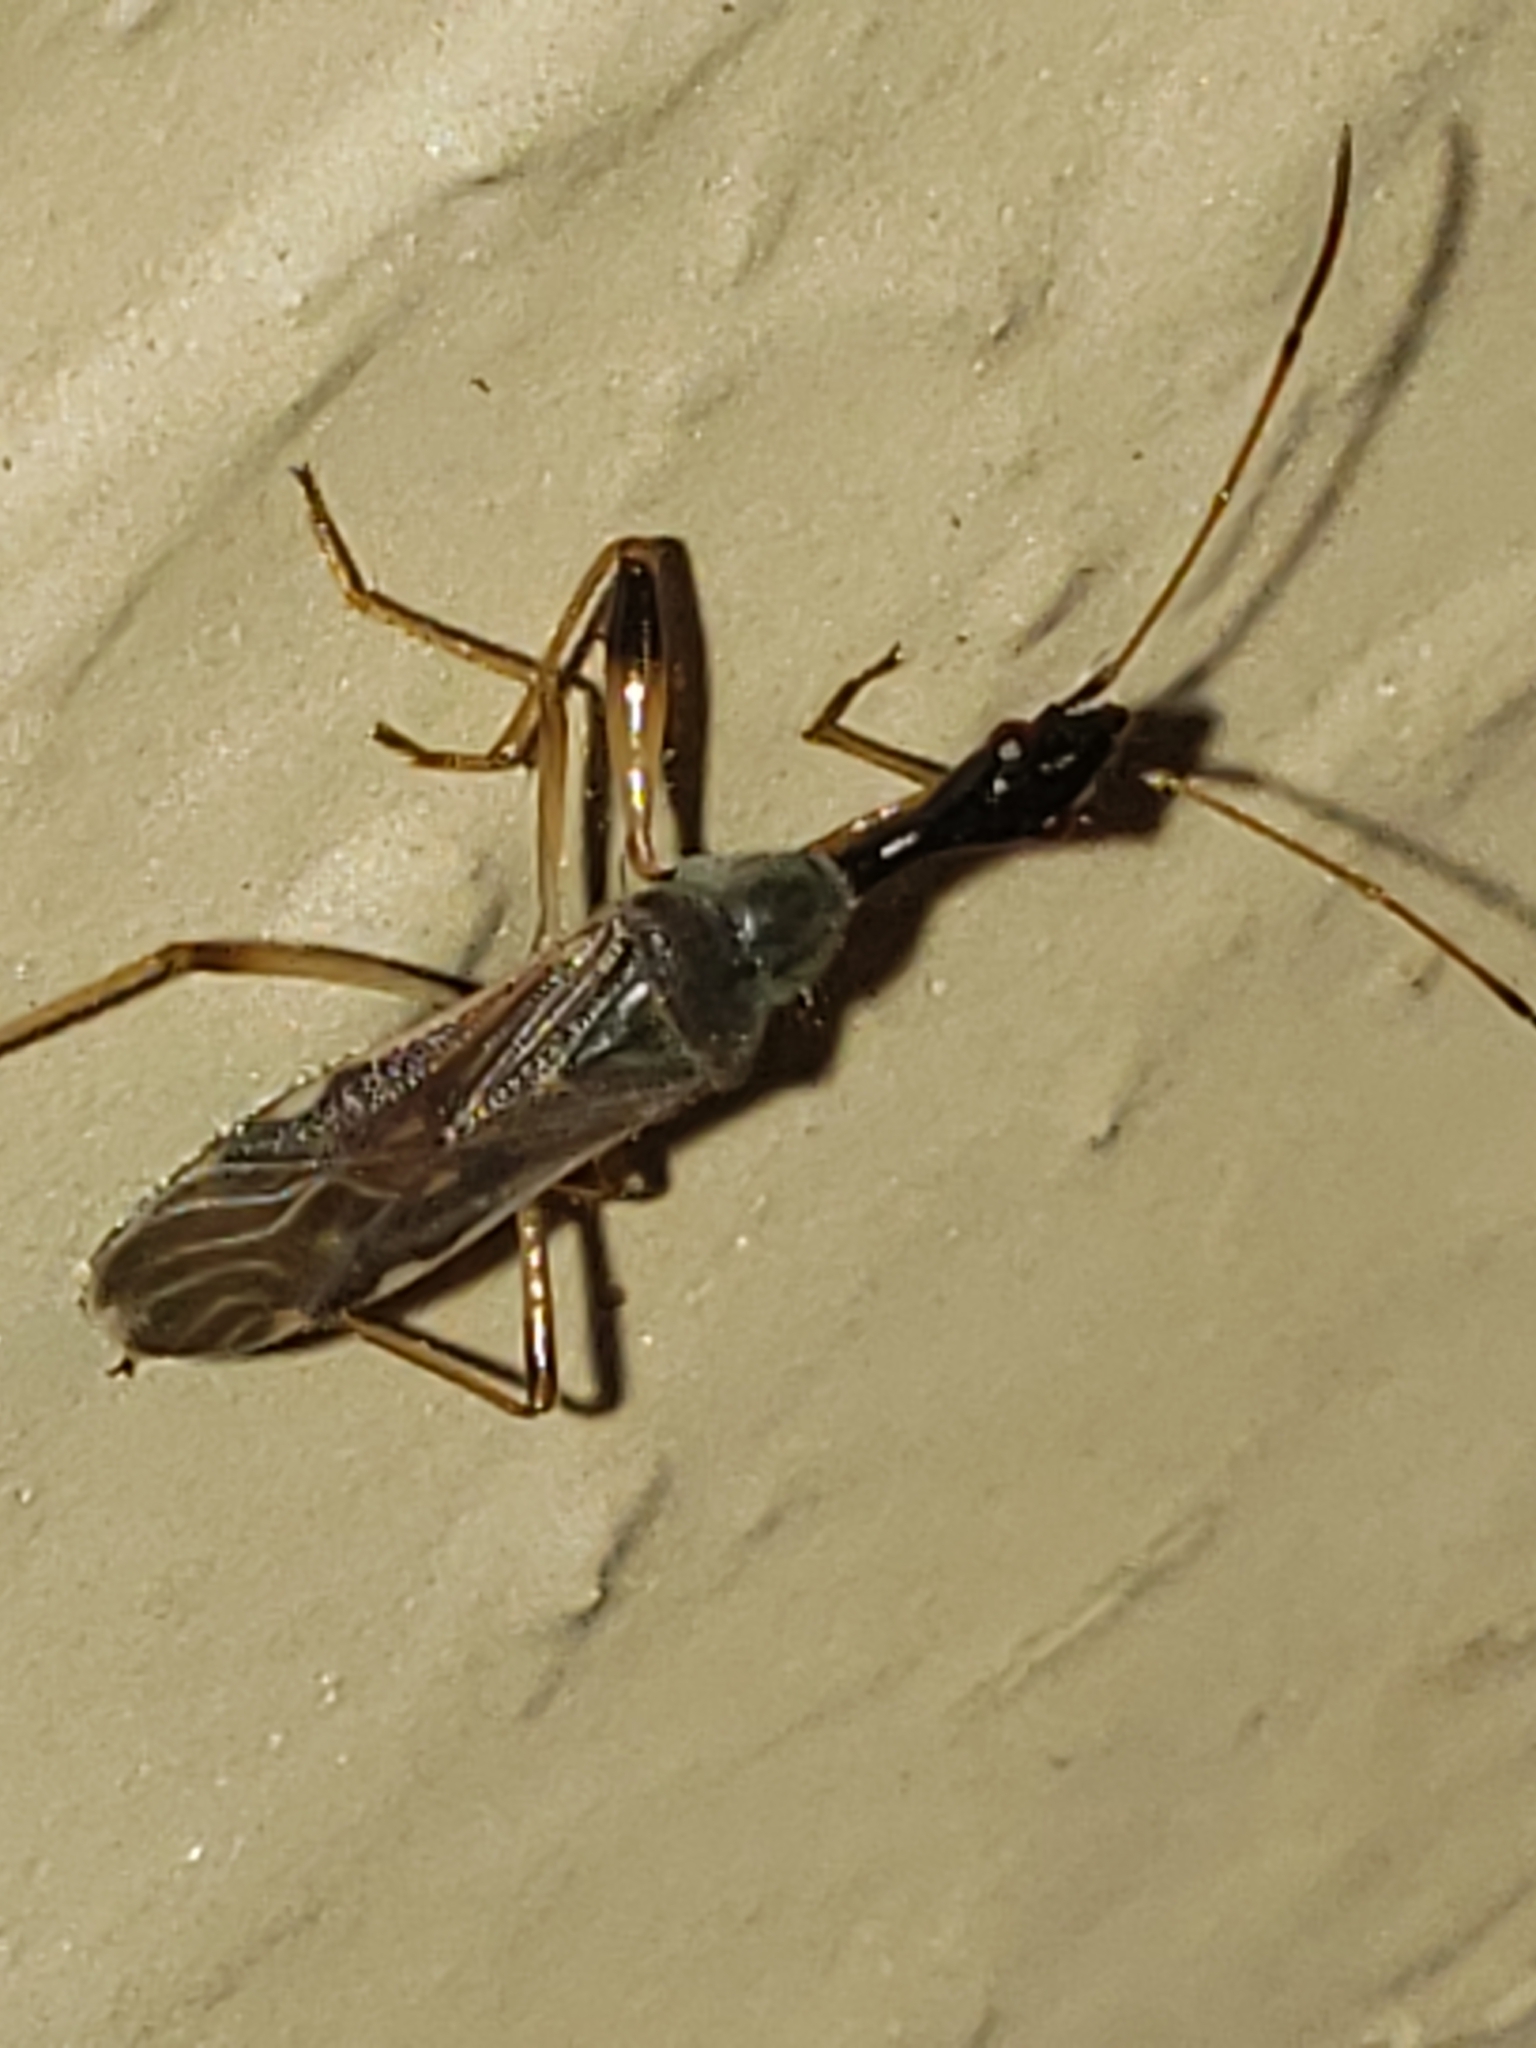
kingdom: Animalia
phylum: Arthropoda
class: Insecta
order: Hemiptera
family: Rhyparochromidae
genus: Myodocha
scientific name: Myodocha serripes
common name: Long-necked seed bug
